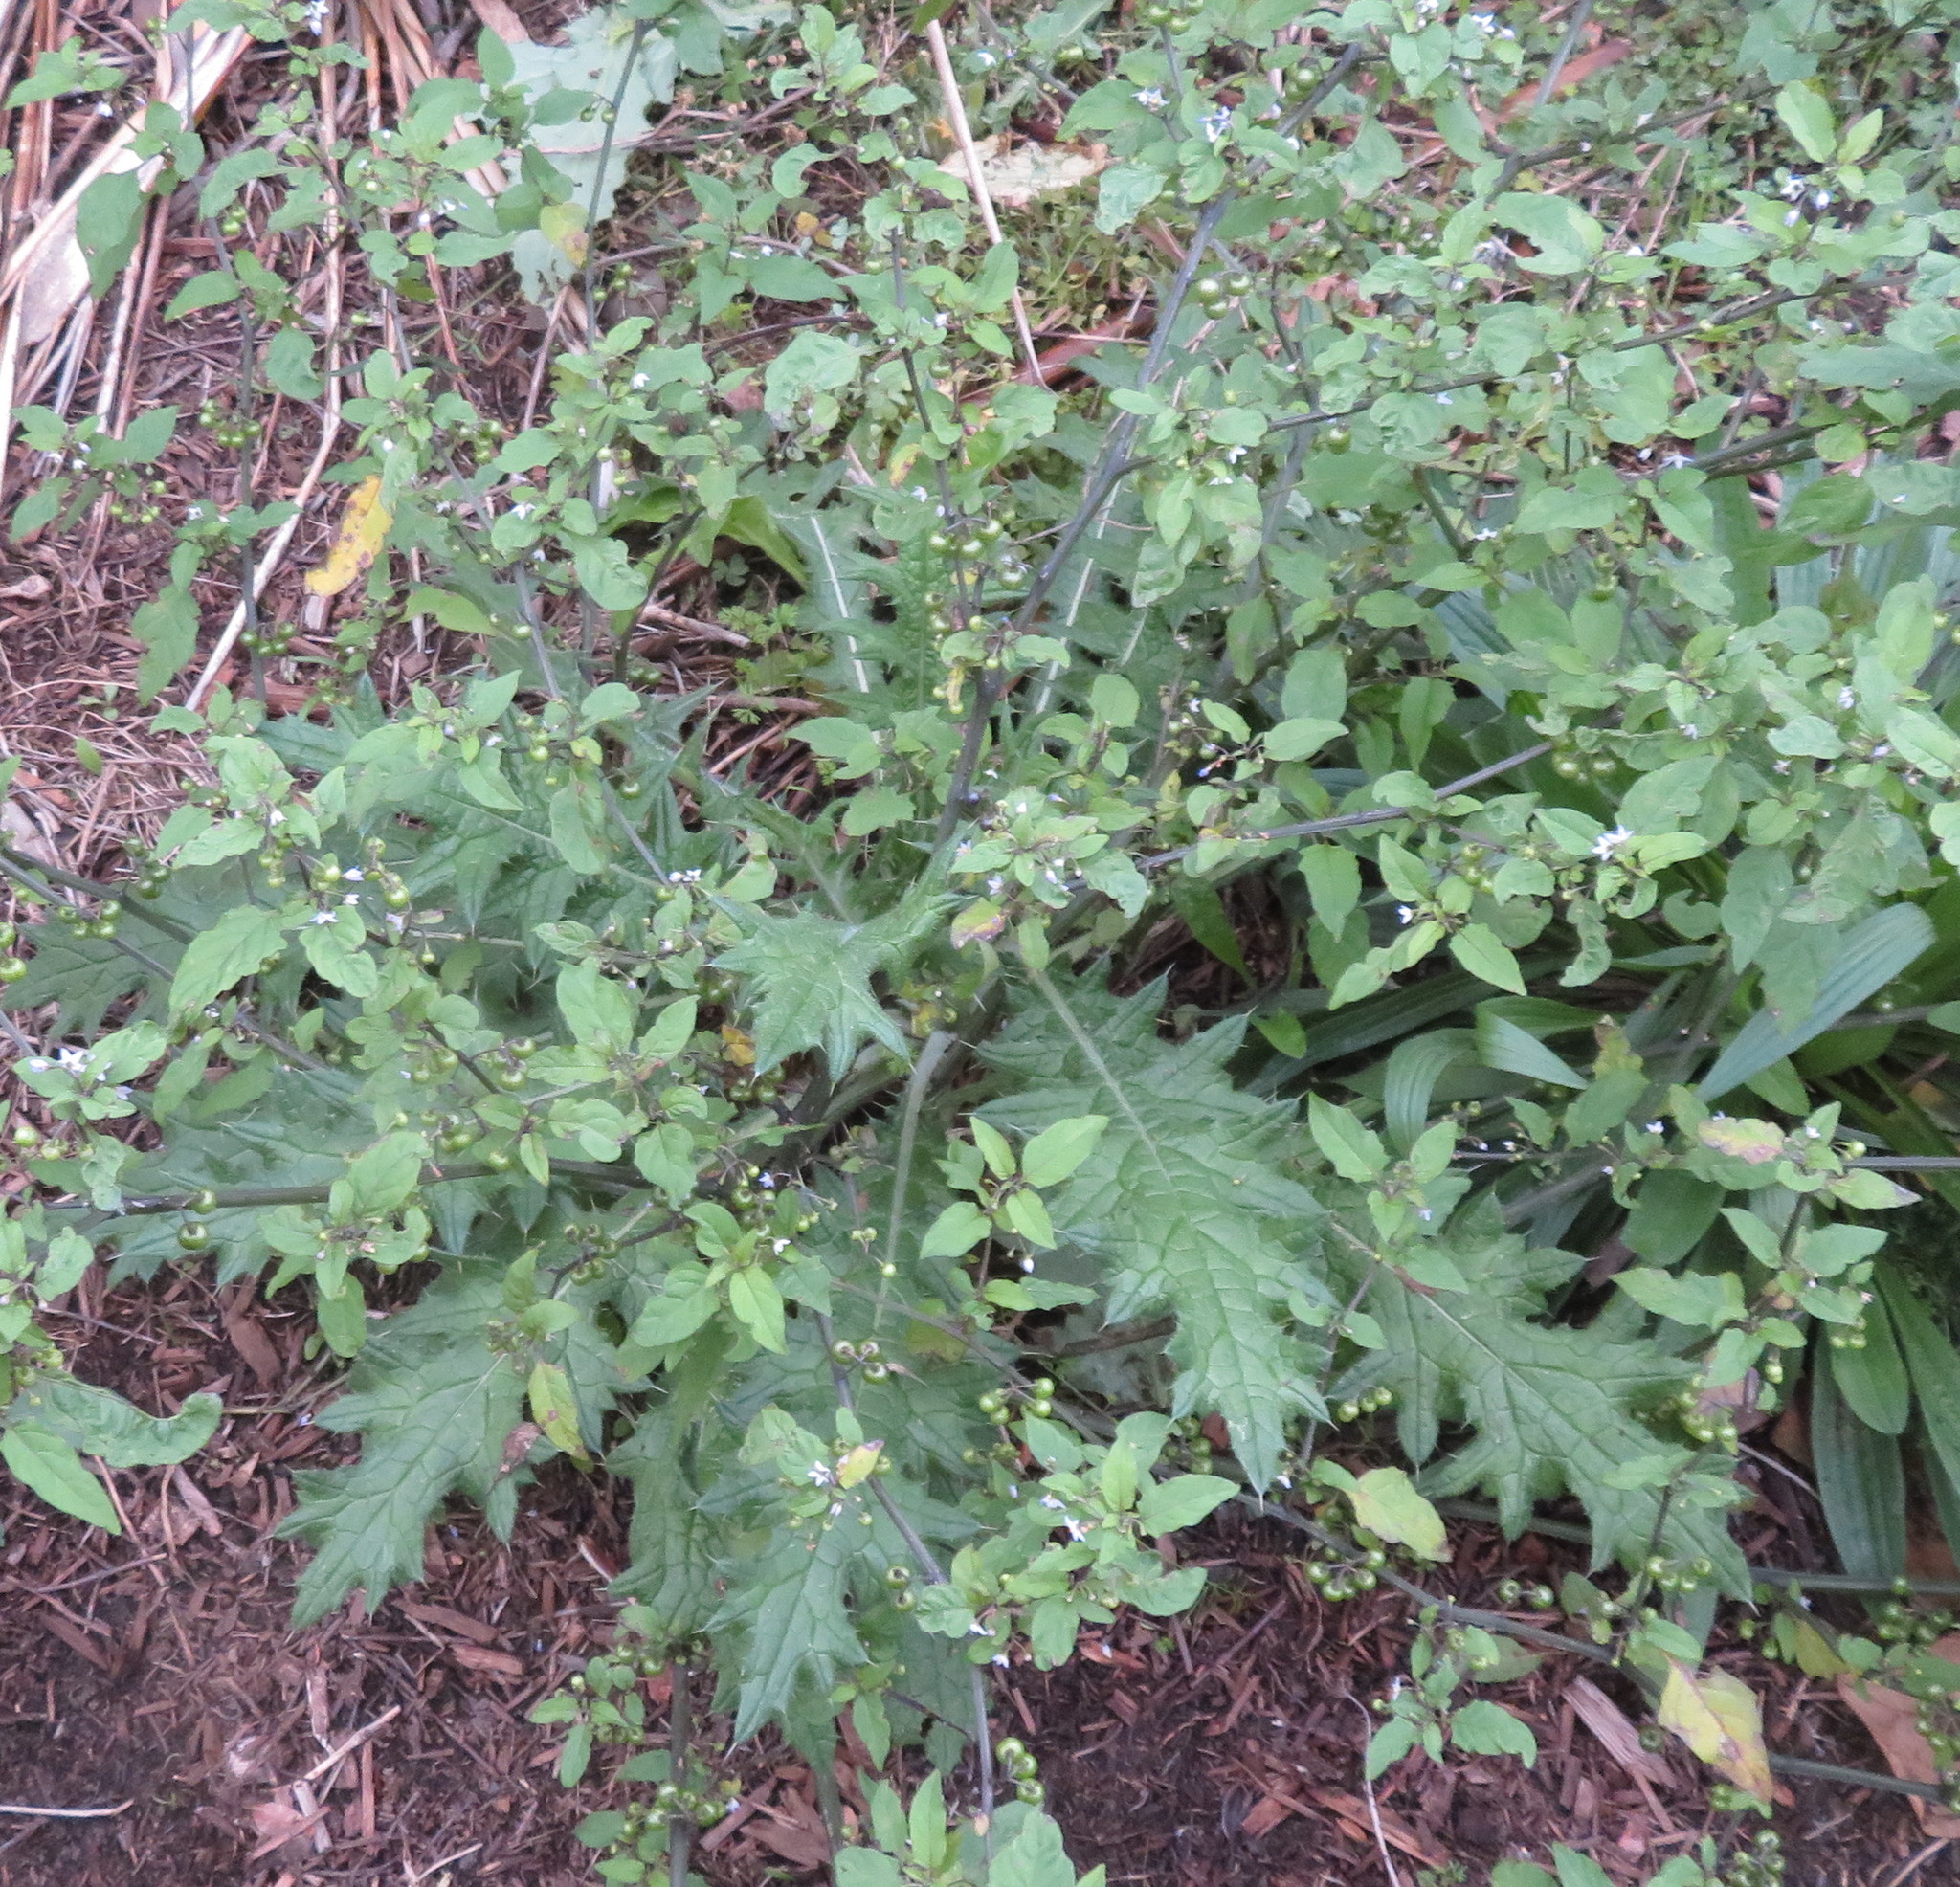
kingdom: Plantae
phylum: Tracheophyta
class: Magnoliopsida
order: Asterales
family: Asteraceae
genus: Cirsium
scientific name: Cirsium vulgare
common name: Bull thistle
